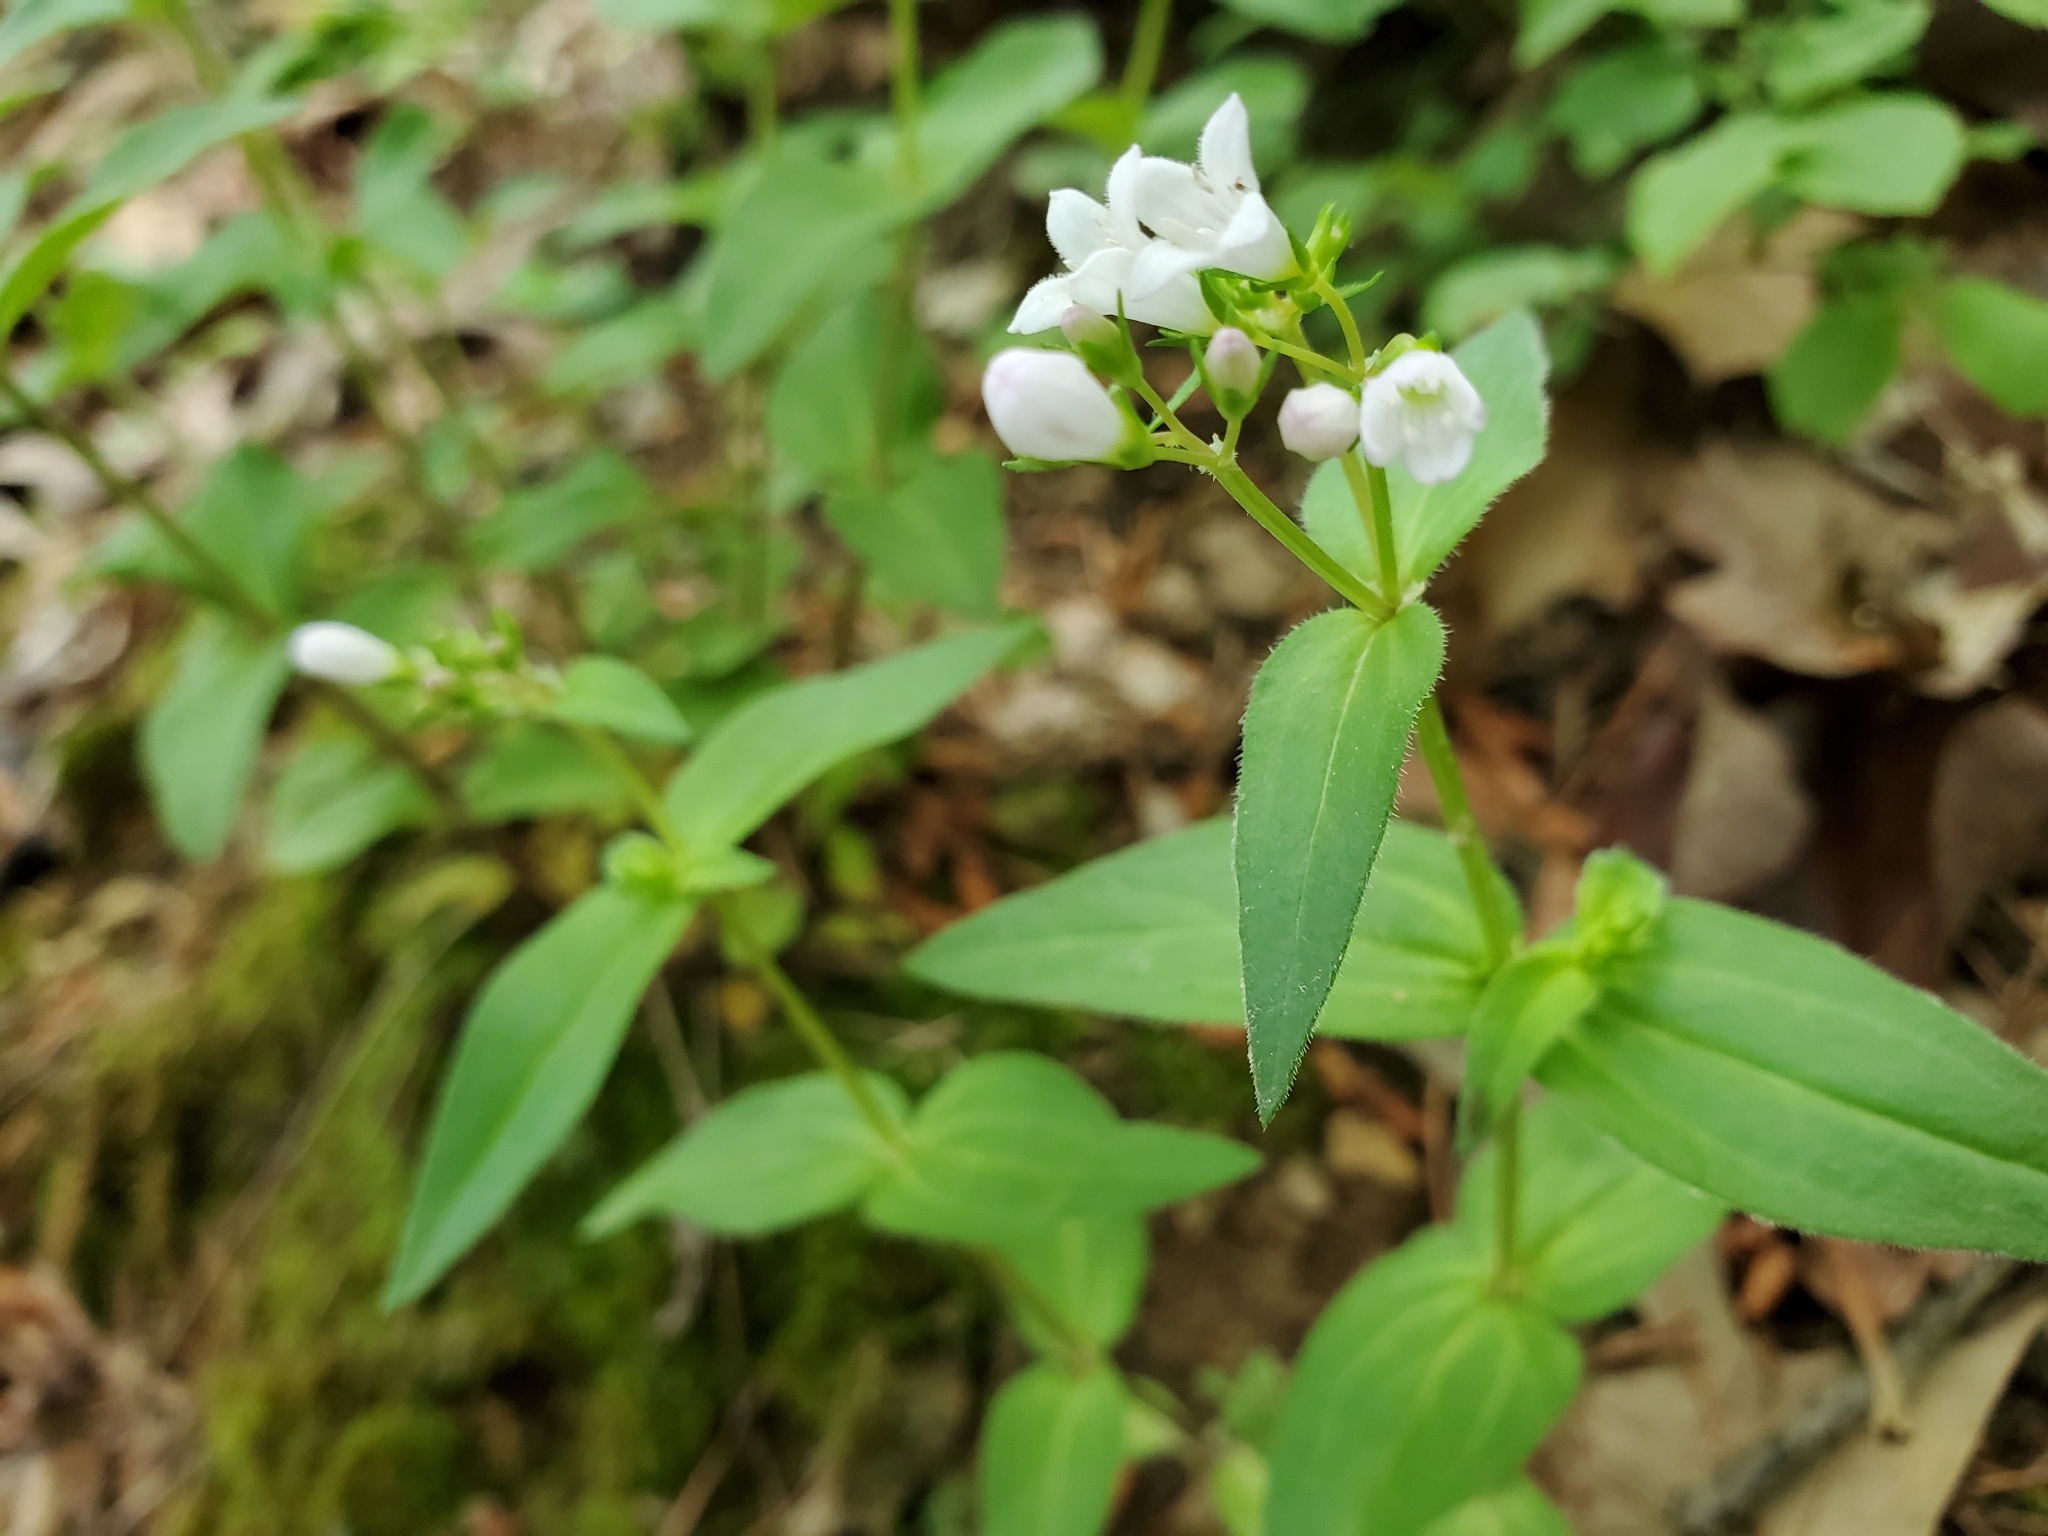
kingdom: Plantae
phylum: Tracheophyta
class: Magnoliopsida
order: Gentianales
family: Rubiaceae
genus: Houstonia
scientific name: Houstonia purpurea
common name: Summer bluet
